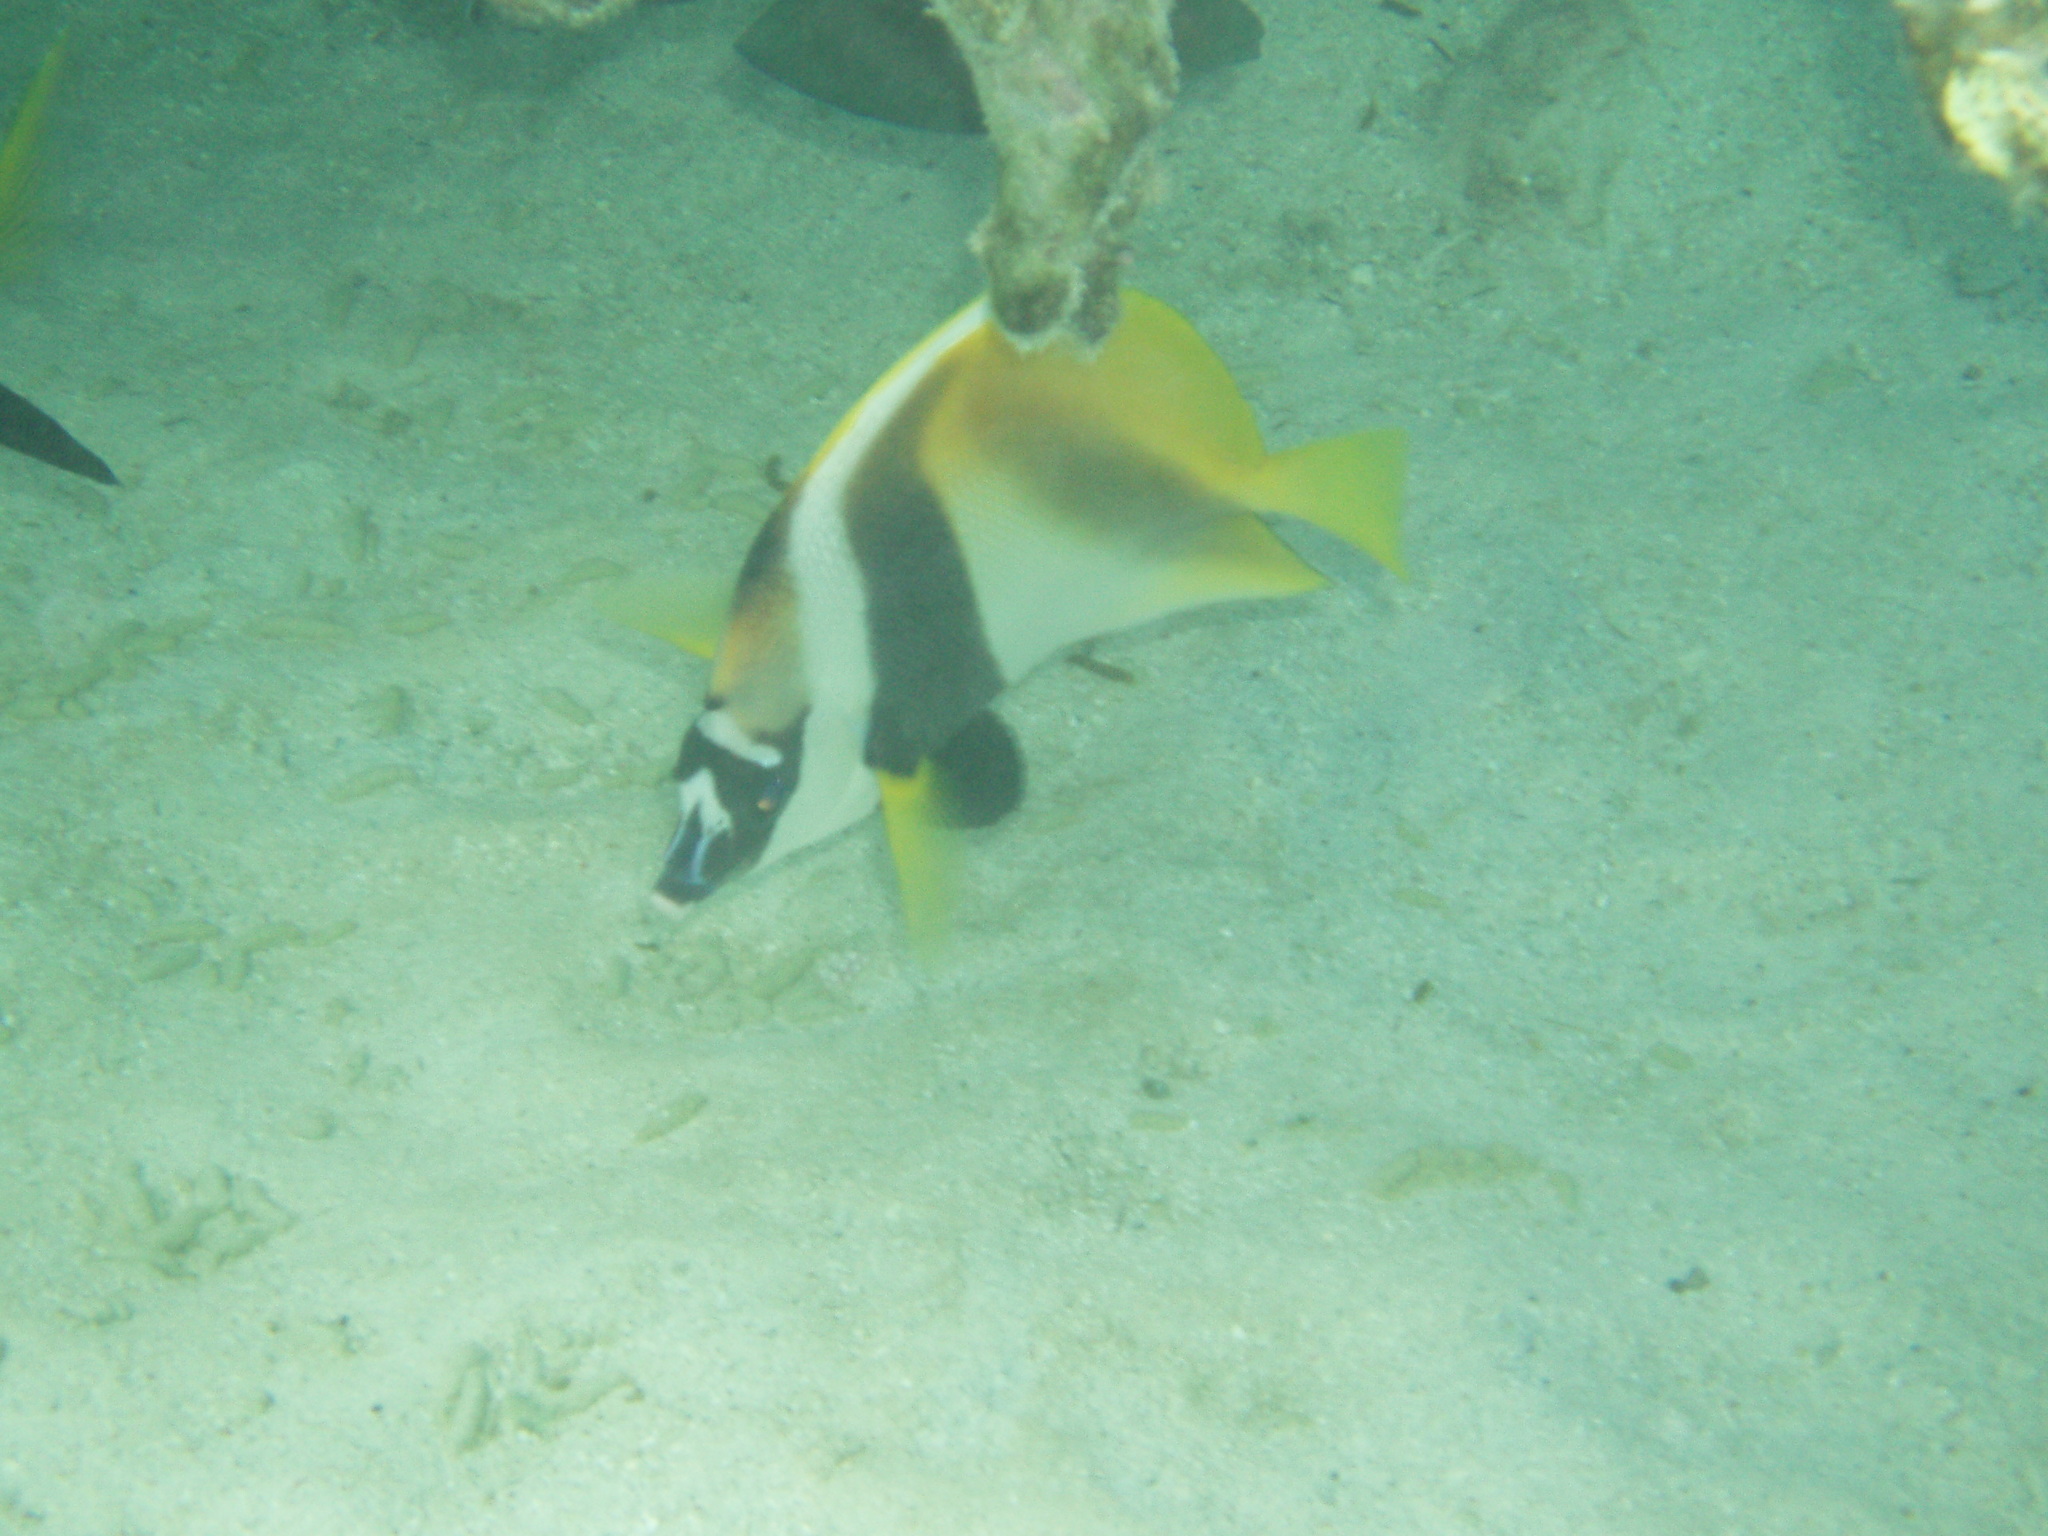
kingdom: Animalia
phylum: Chordata
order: Perciformes
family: Chaetodontidae
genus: Heniochus
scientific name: Heniochus monoceros
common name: Masked bannerfish
